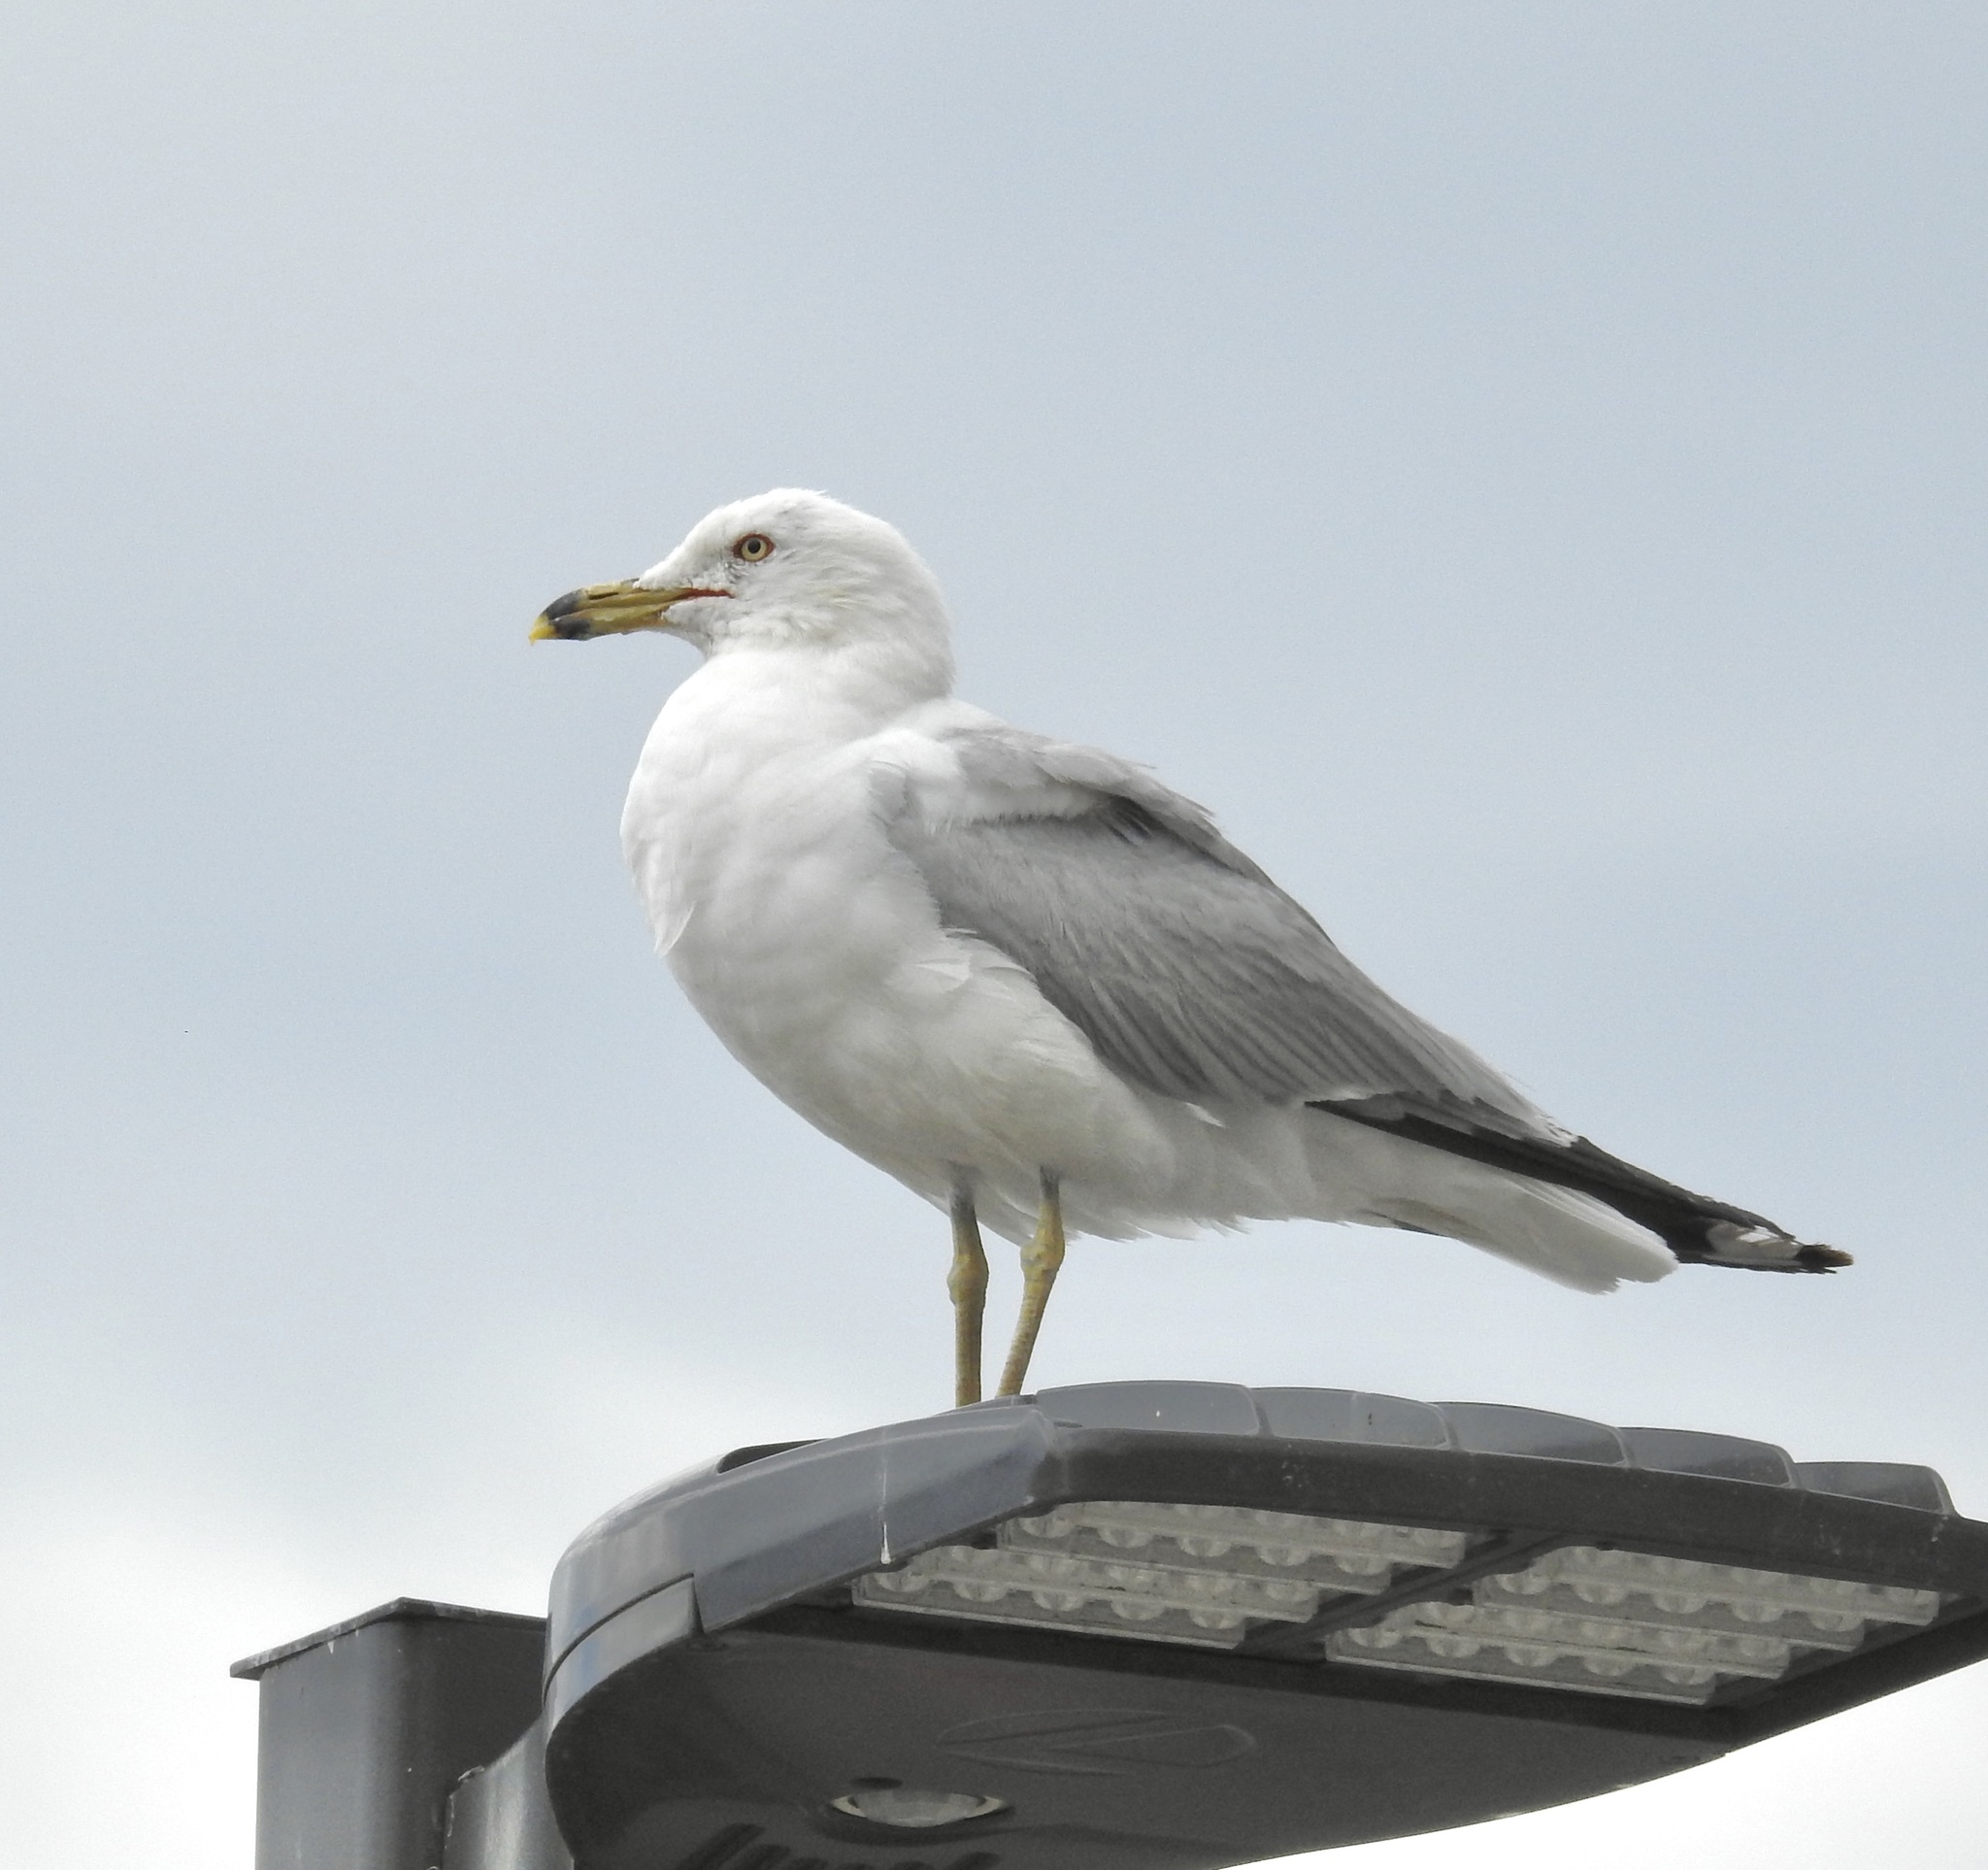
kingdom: Animalia
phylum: Chordata
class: Aves
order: Charadriiformes
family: Laridae
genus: Larus
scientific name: Larus delawarensis
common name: Ring-billed gull
